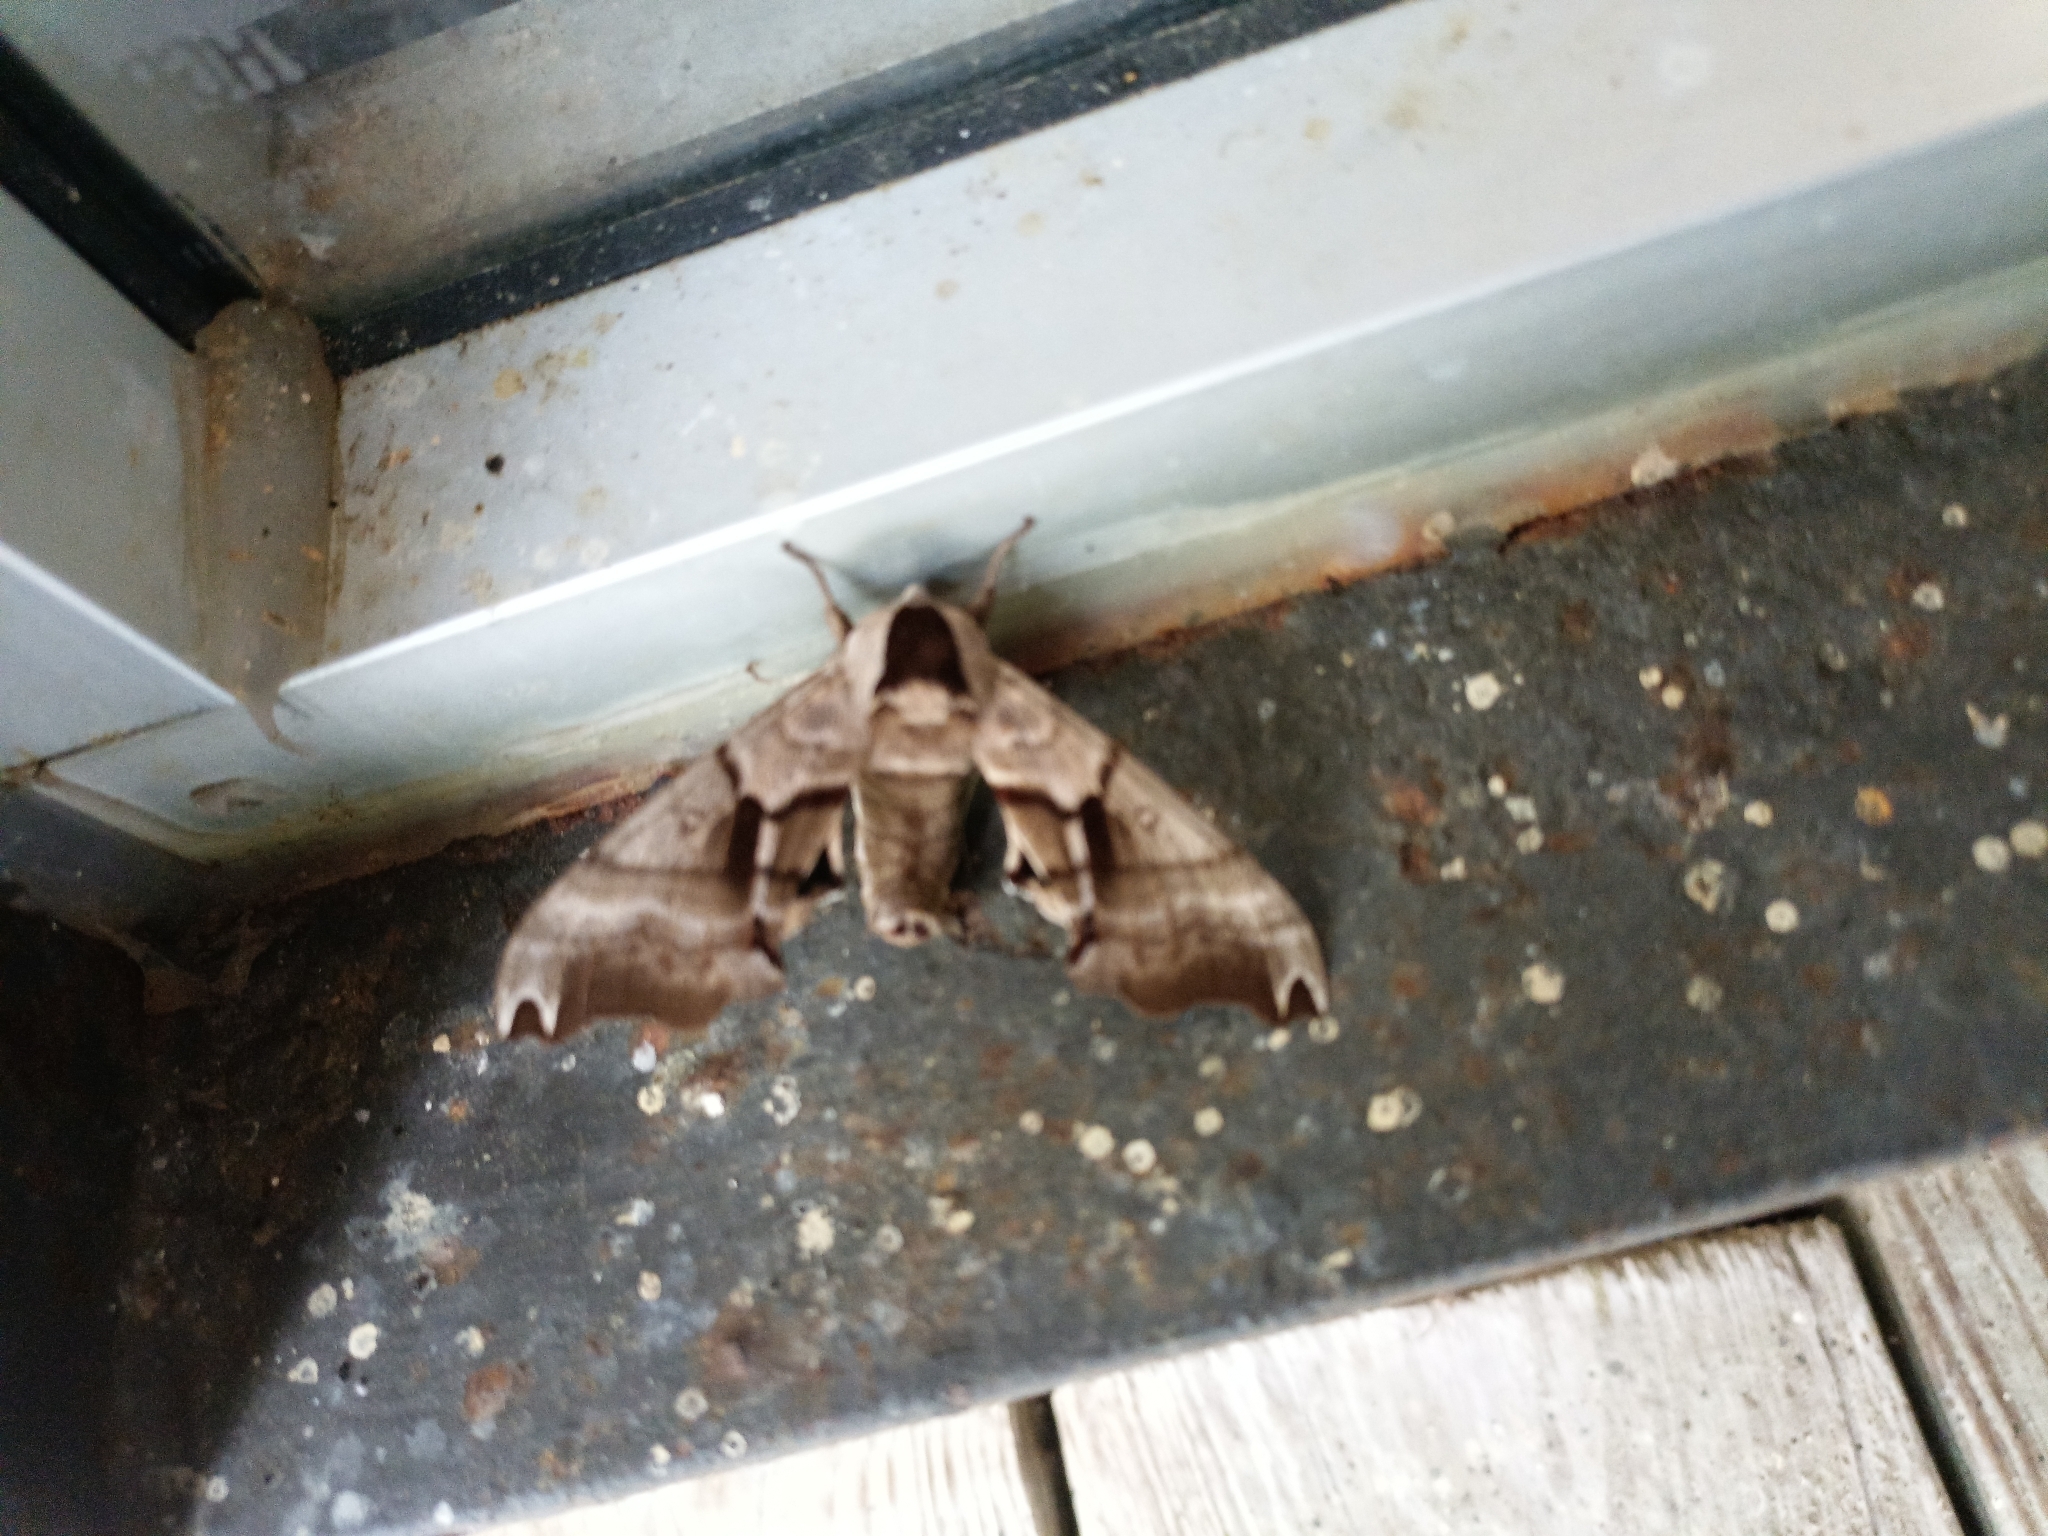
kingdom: Animalia
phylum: Arthropoda
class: Insecta
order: Lepidoptera
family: Sphingidae
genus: Smerinthus
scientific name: Smerinthus jamaicensis
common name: Twin spotted sphinx
